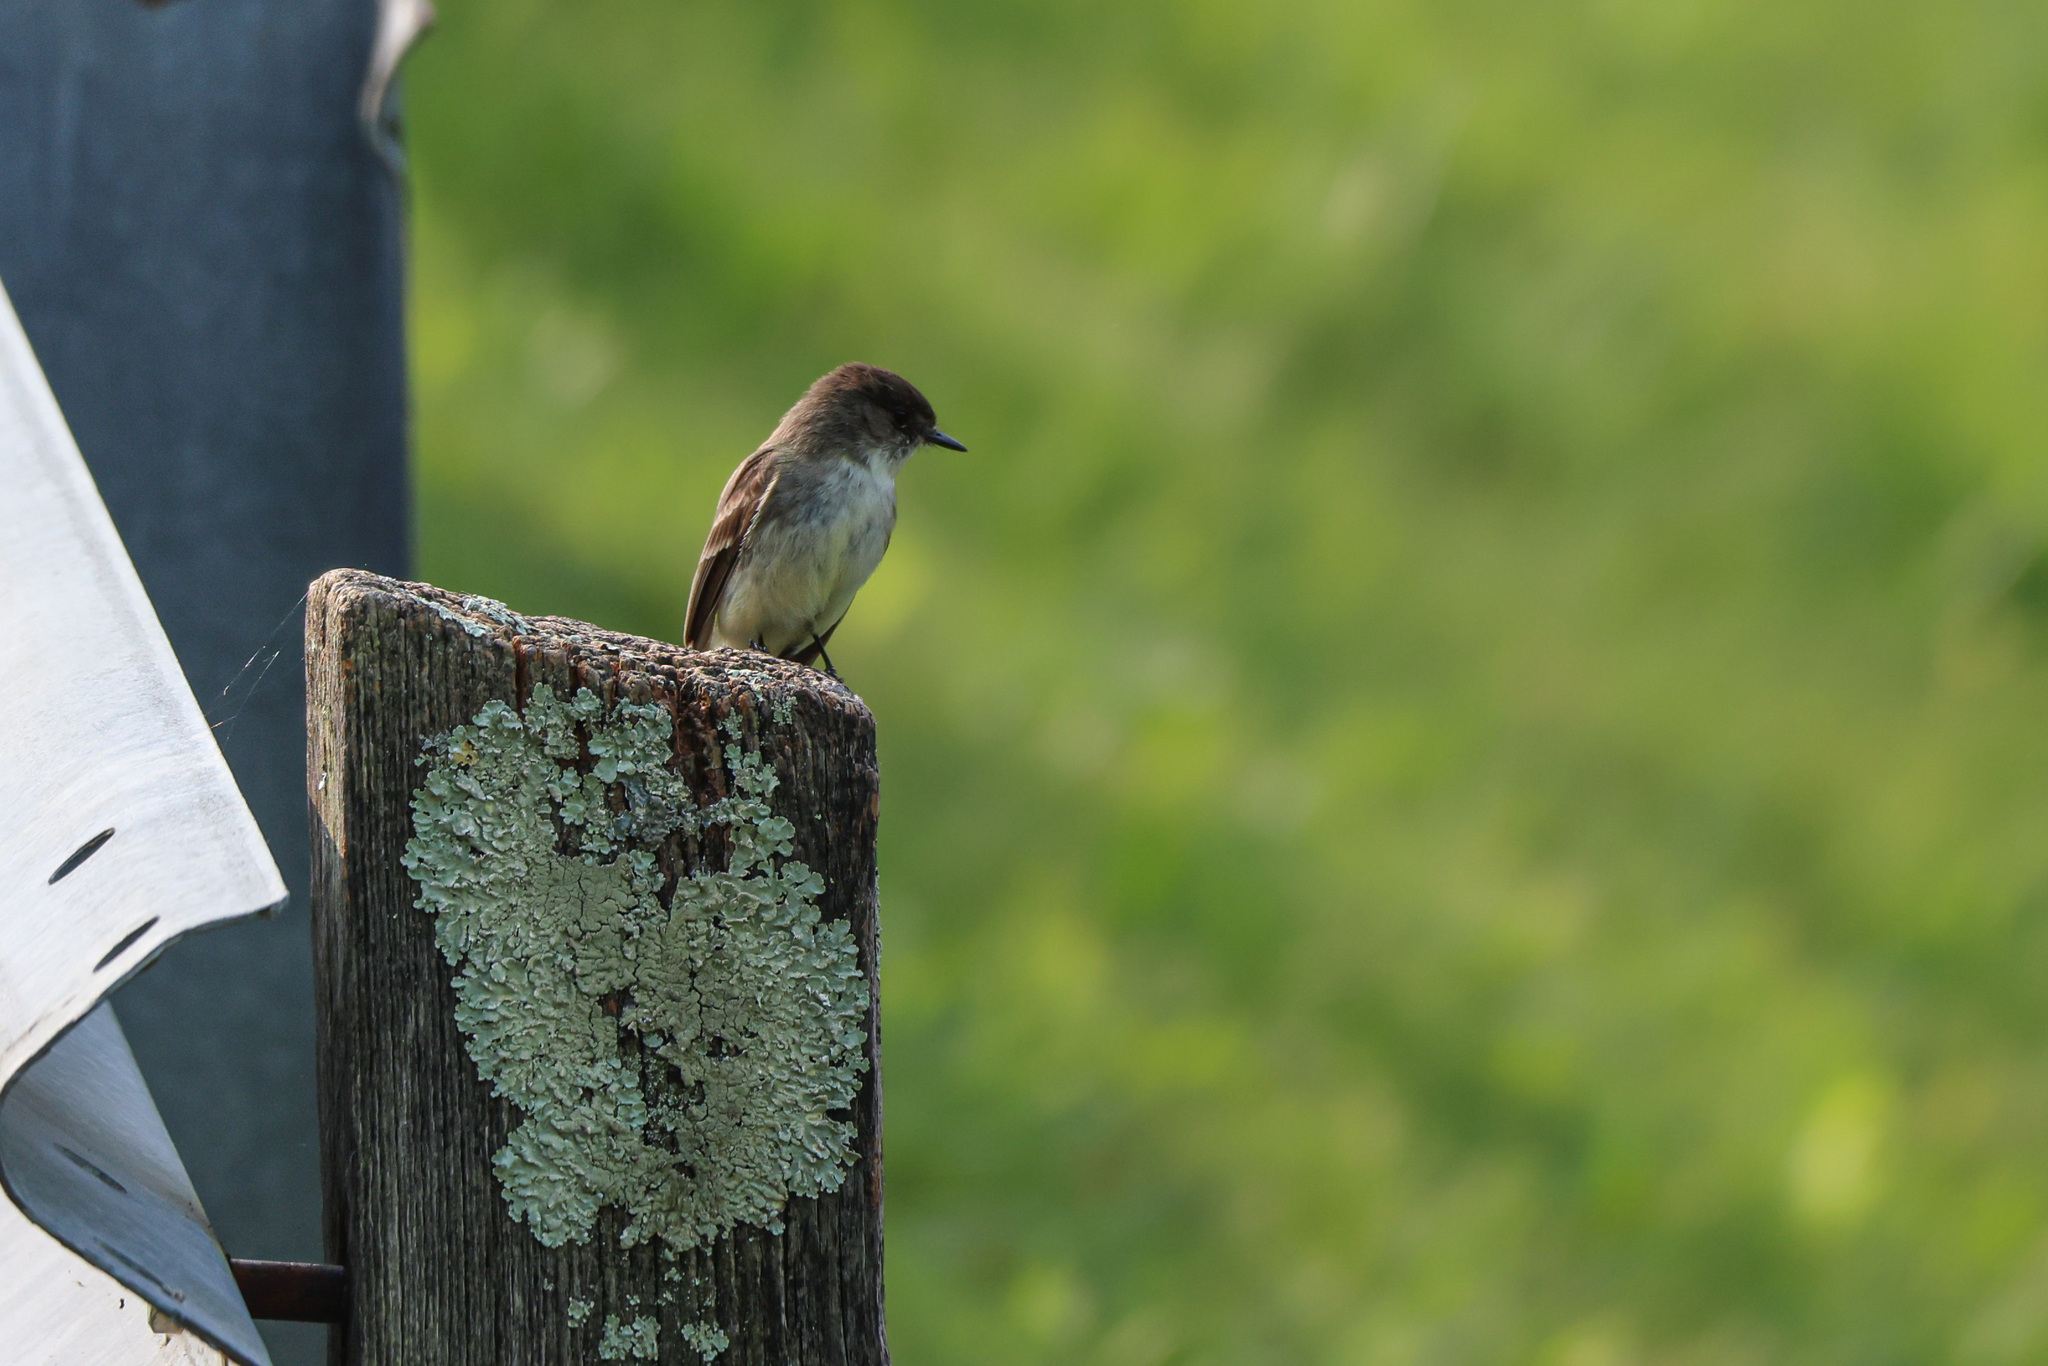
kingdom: Animalia
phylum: Chordata
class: Aves
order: Passeriformes
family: Tyrannidae
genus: Sayornis
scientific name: Sayornis phoebe
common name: Eastern phoebe
